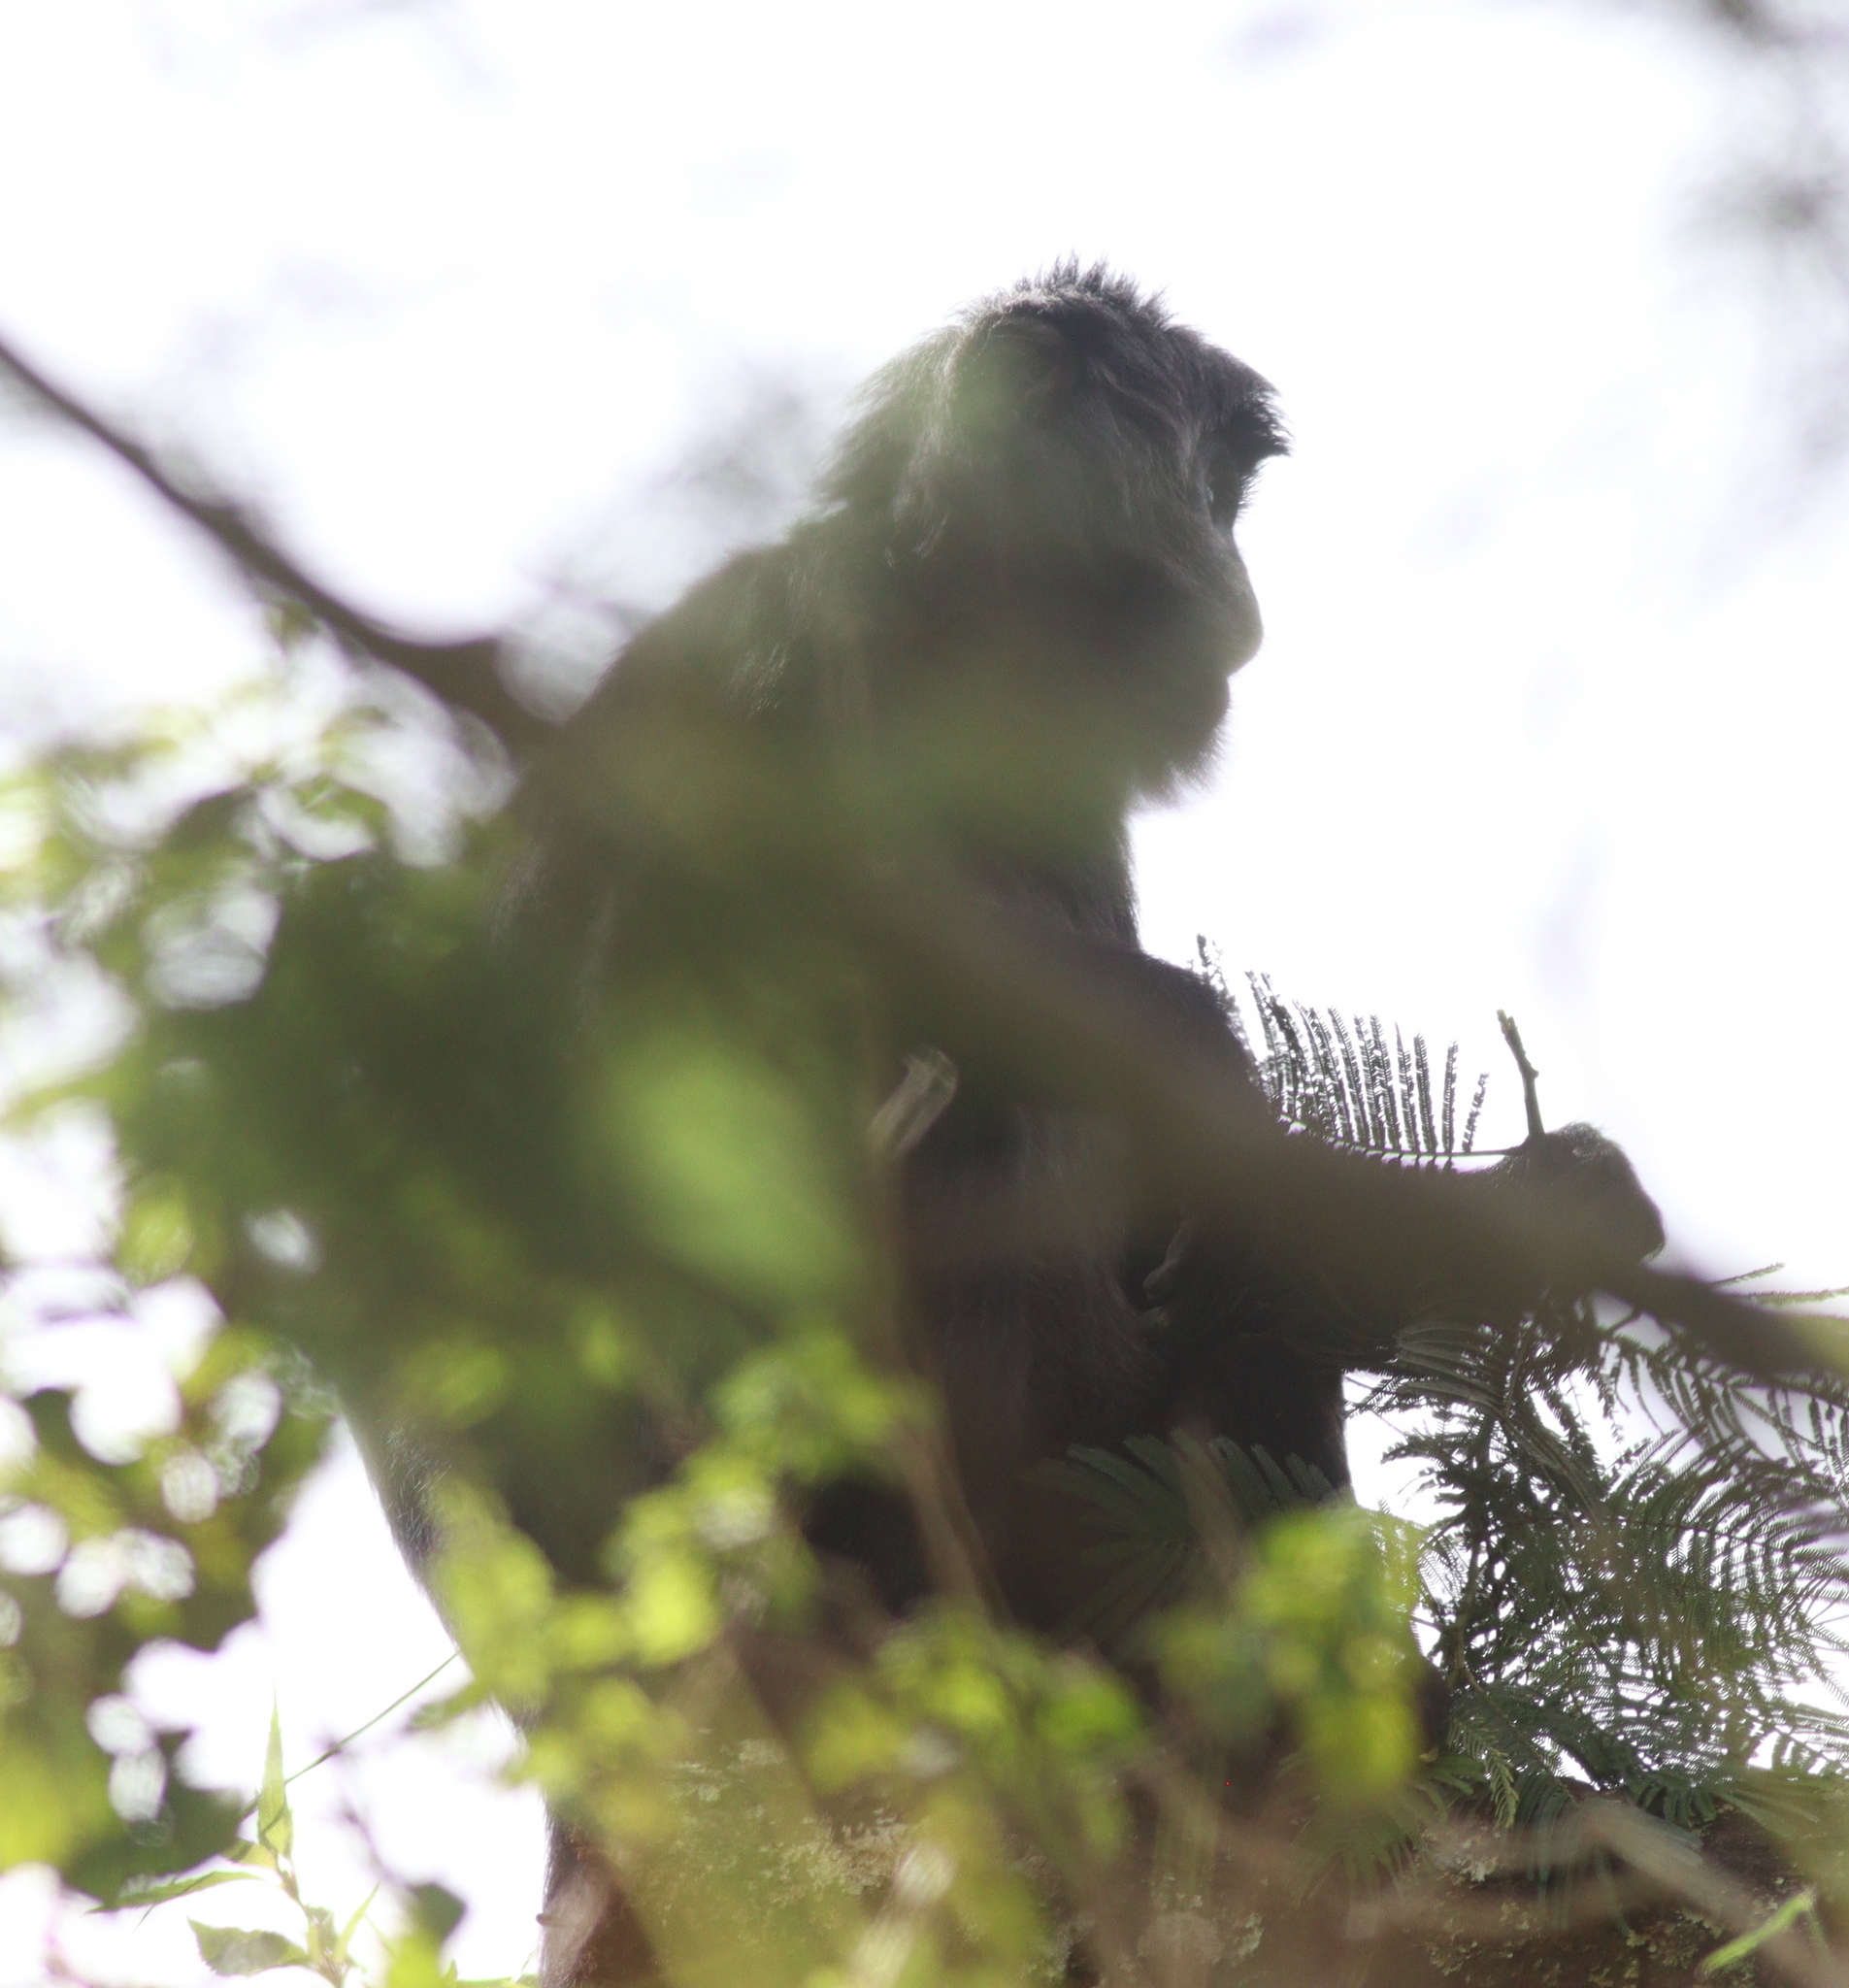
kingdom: Animalia
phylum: Chordata
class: Mammalia
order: Primates
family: Cercopithecidae
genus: Trachypithecus
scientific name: Trachypithecus auratus
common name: Javan lutung
